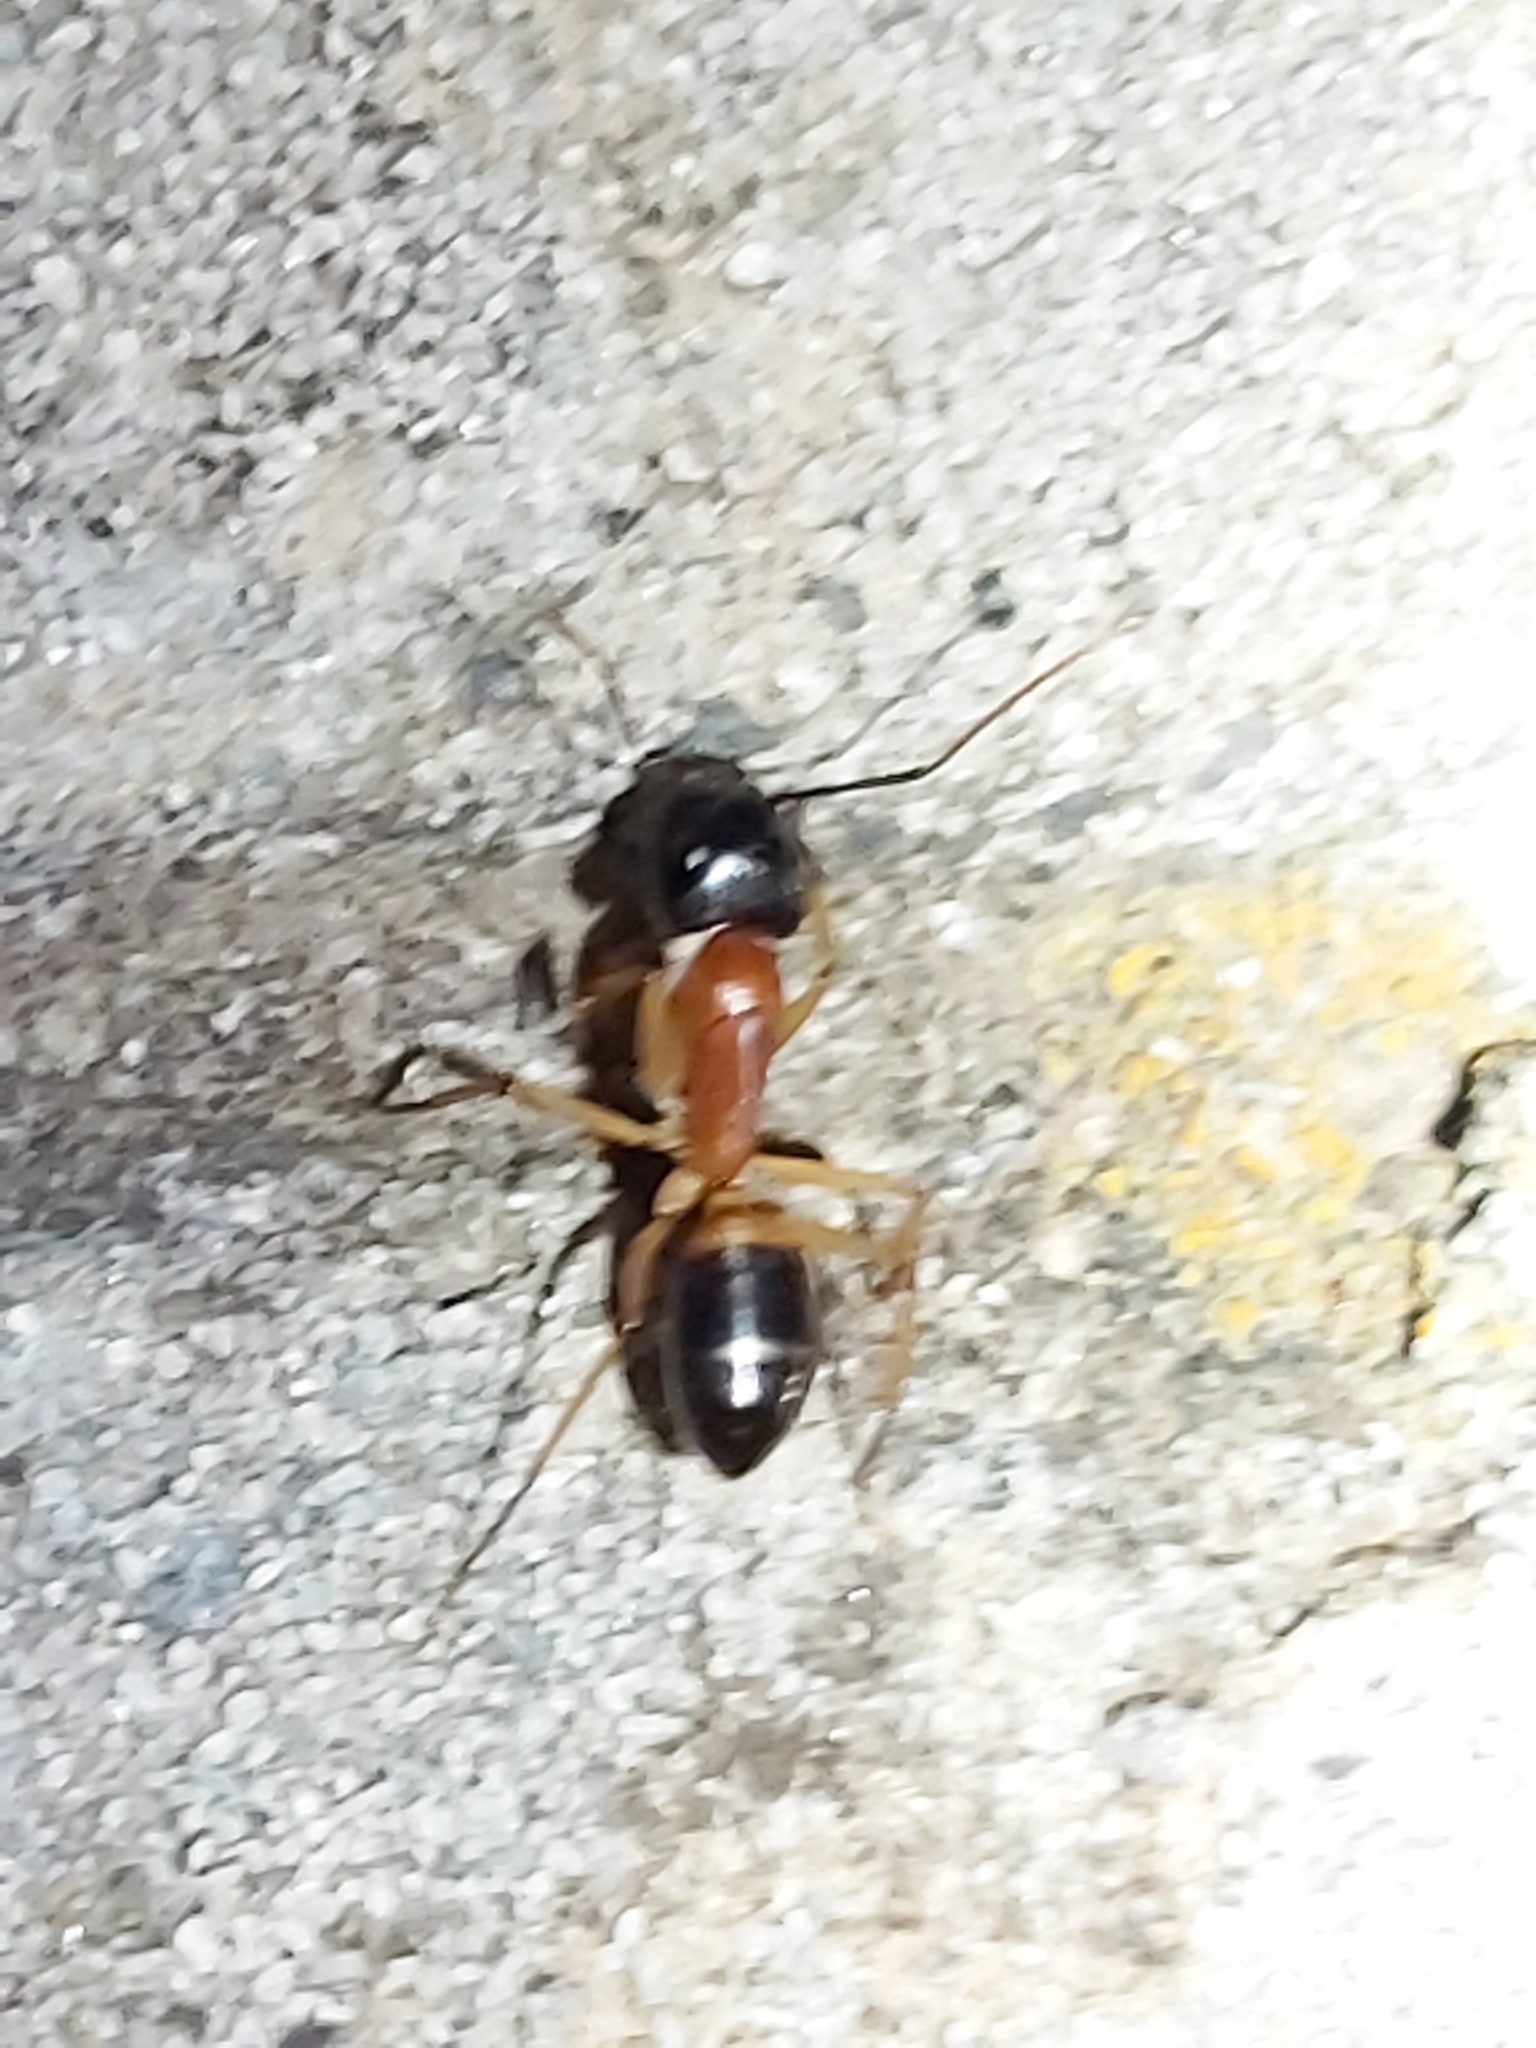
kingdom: Animalia
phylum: Arthropoda
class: Insecta
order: Hymenoptera
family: Formicidae
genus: Camponotus
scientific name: Camponotus consobrinus
